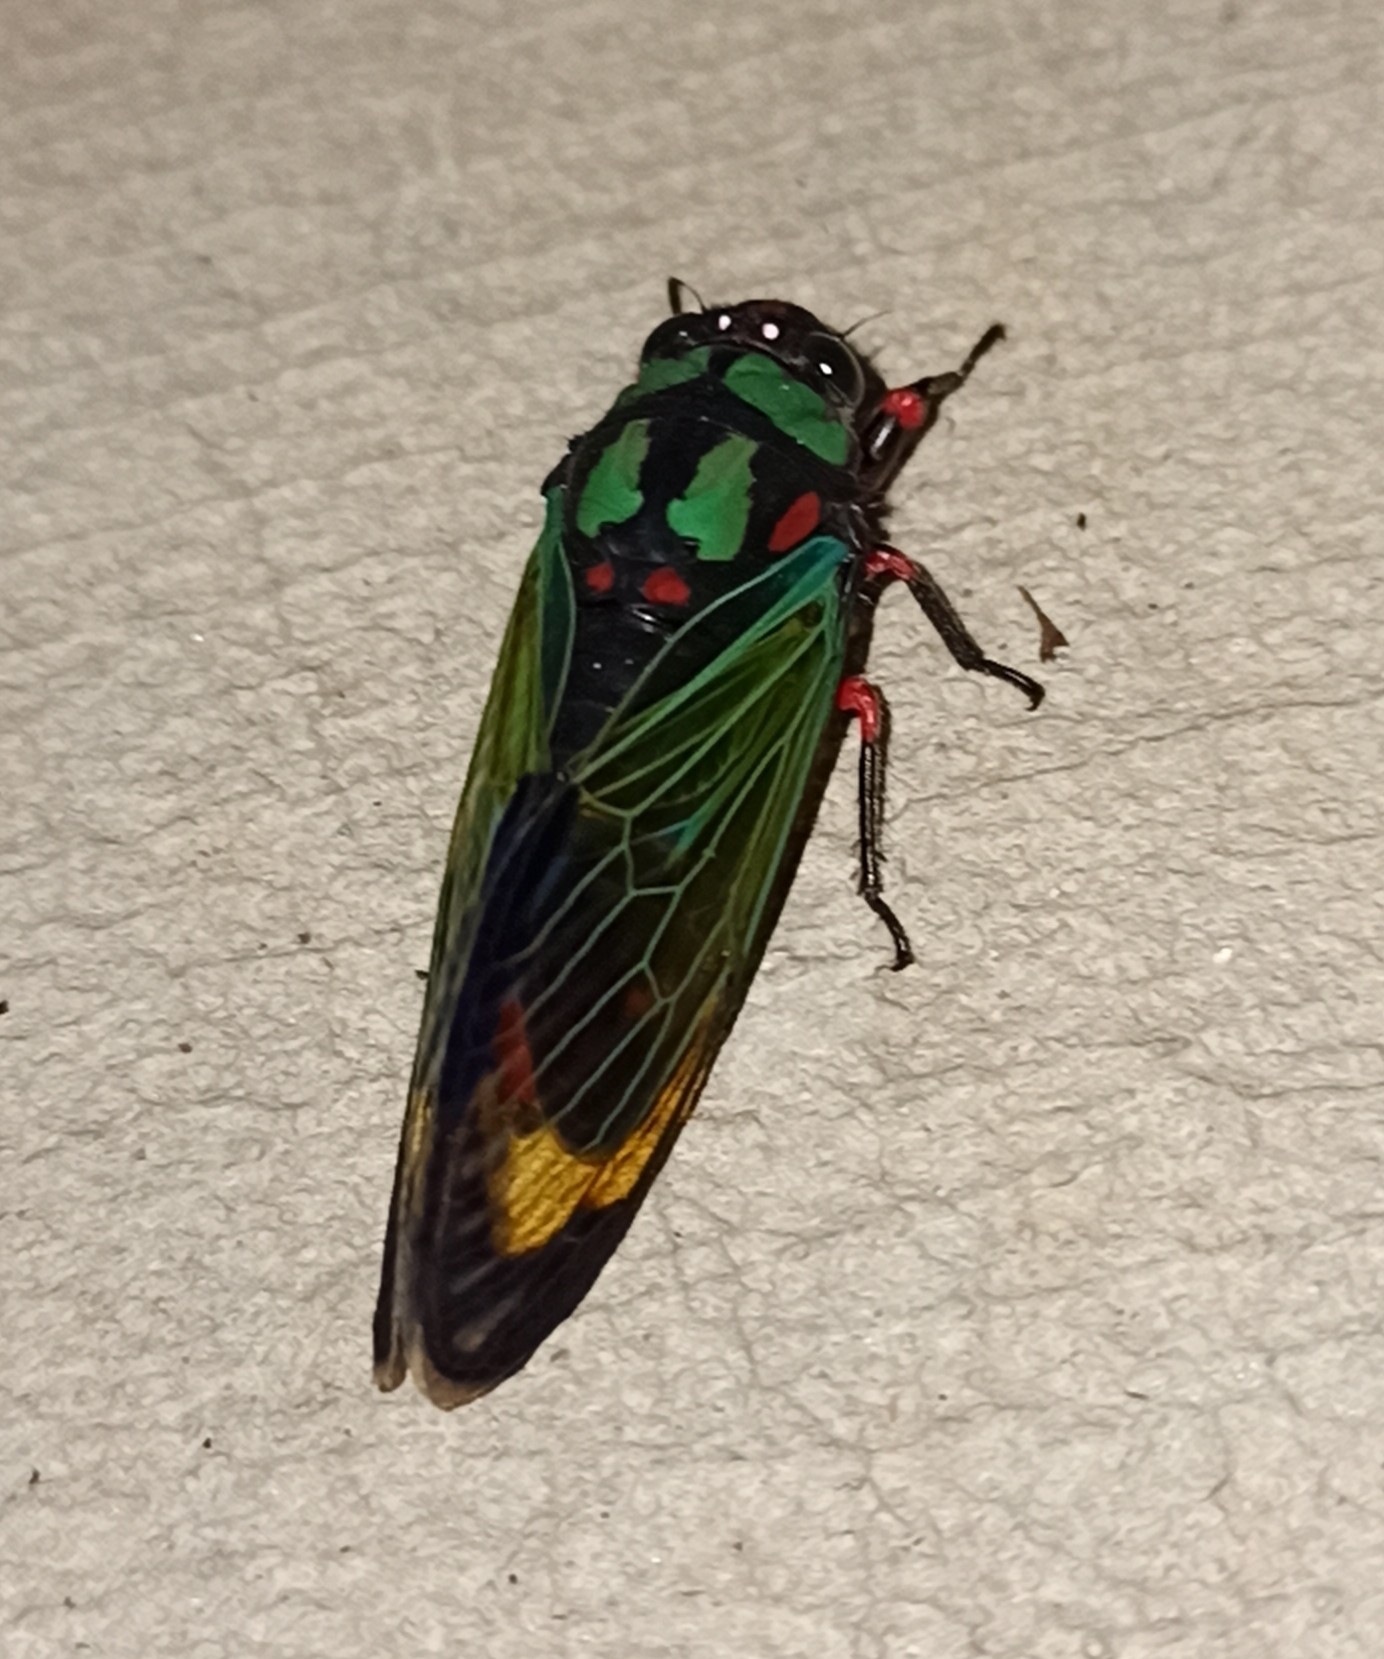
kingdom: Animalia
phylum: Arthropoda
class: Insecta
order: Hemiptera
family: Cicadidae
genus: Carineta
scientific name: Carineta diardi
